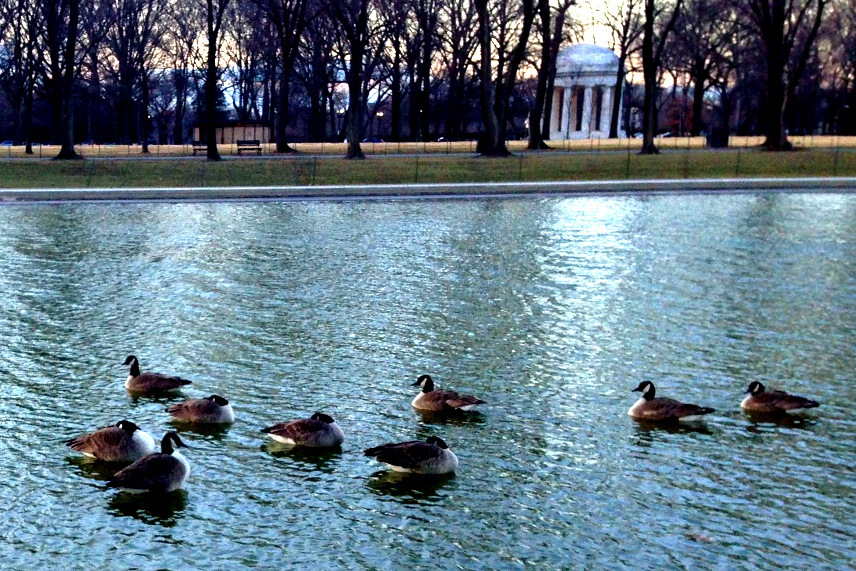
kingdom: Animalia
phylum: Chordata
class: Aves
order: Anseriformes
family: Anatidae
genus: Branta
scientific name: Branta canadensis
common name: Canada goose
